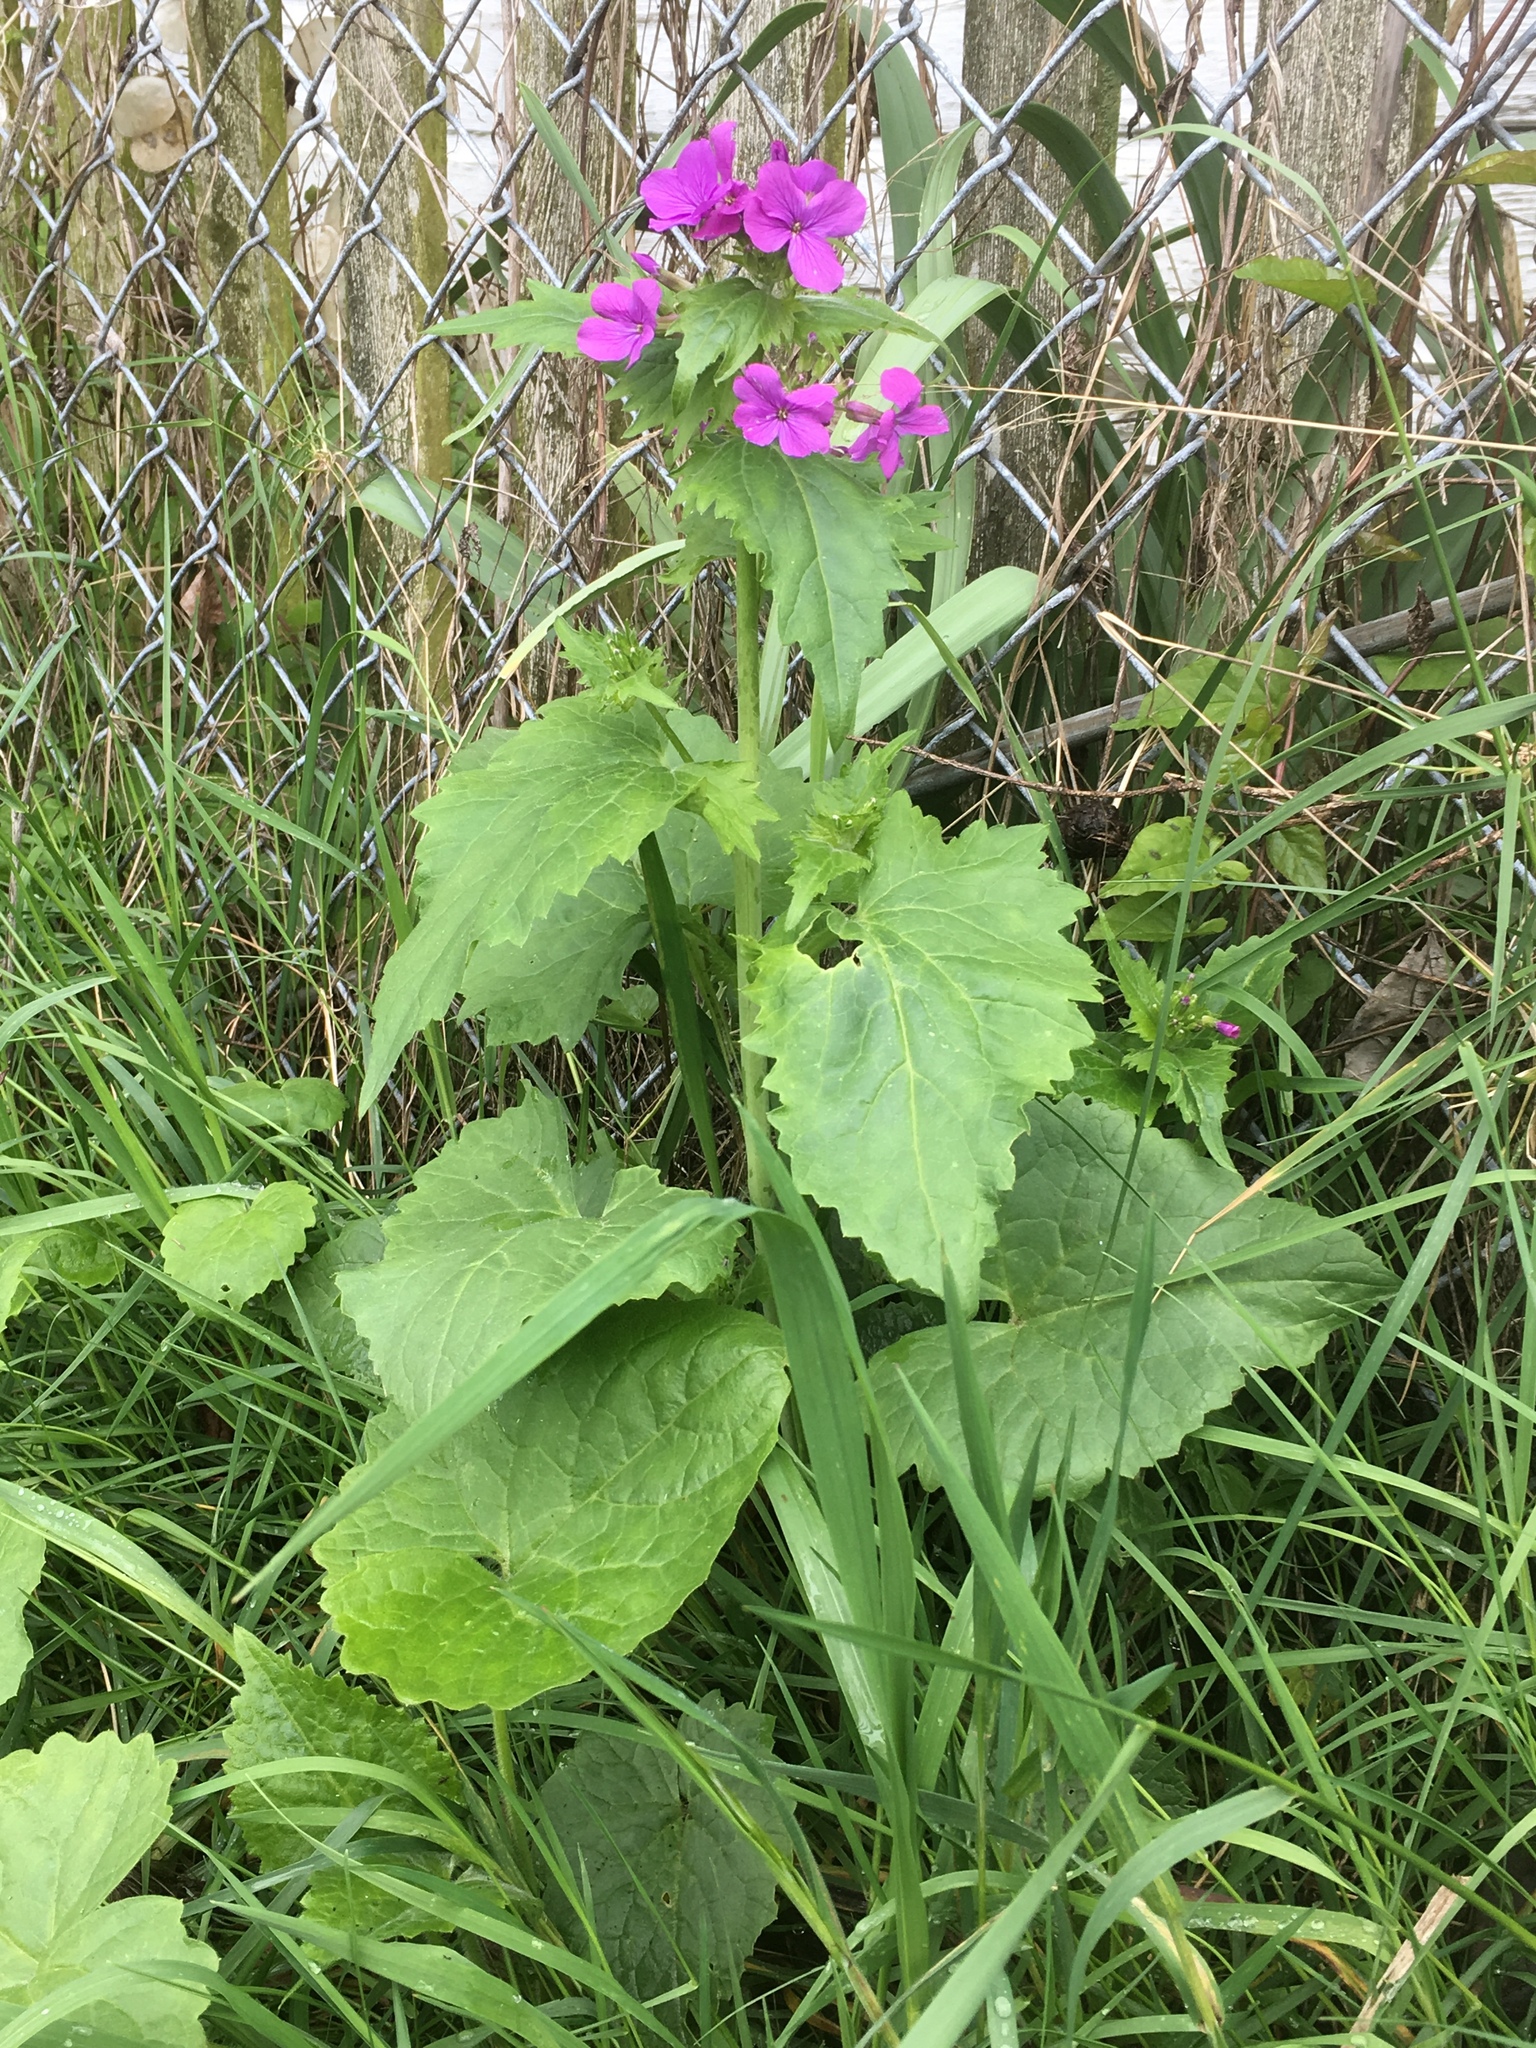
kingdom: Plantae
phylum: Tracheophyta
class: Magnoliopsida
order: Brassicales
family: Brassicaceae
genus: Lunaria
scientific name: Lunaria annua
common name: Honesty
